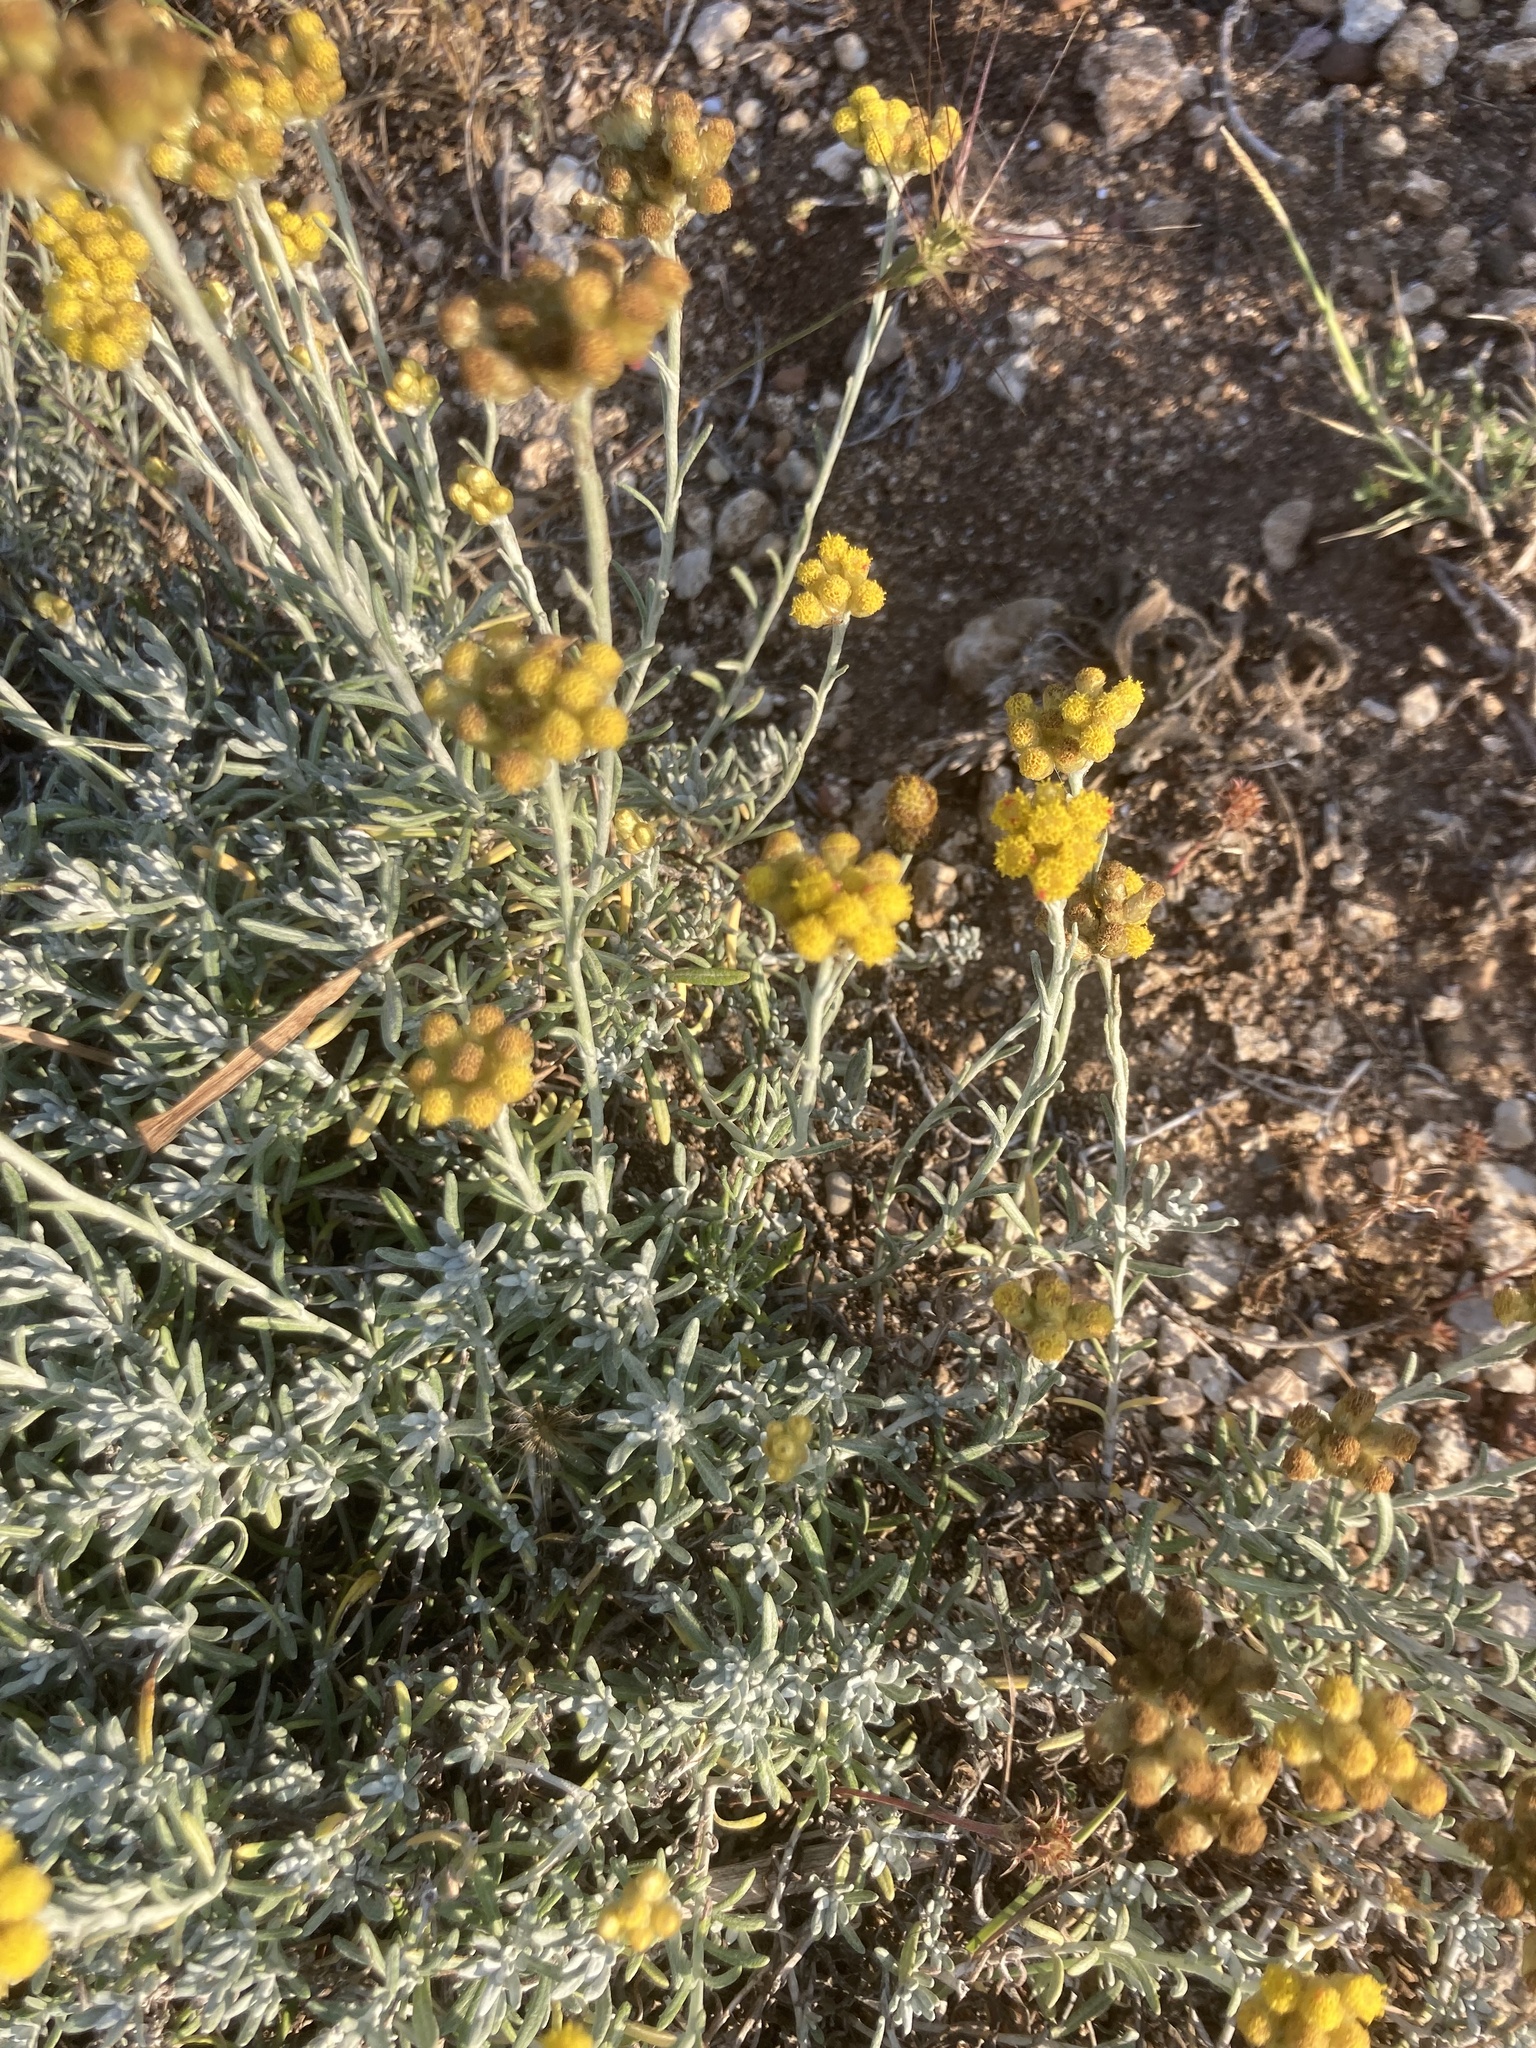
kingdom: Plantae
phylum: Tracheophyta
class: Magnoliopsida
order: Asterales
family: Asteraceae
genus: Helichrysum
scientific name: Helichrysum stoechas
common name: Goldilocks
